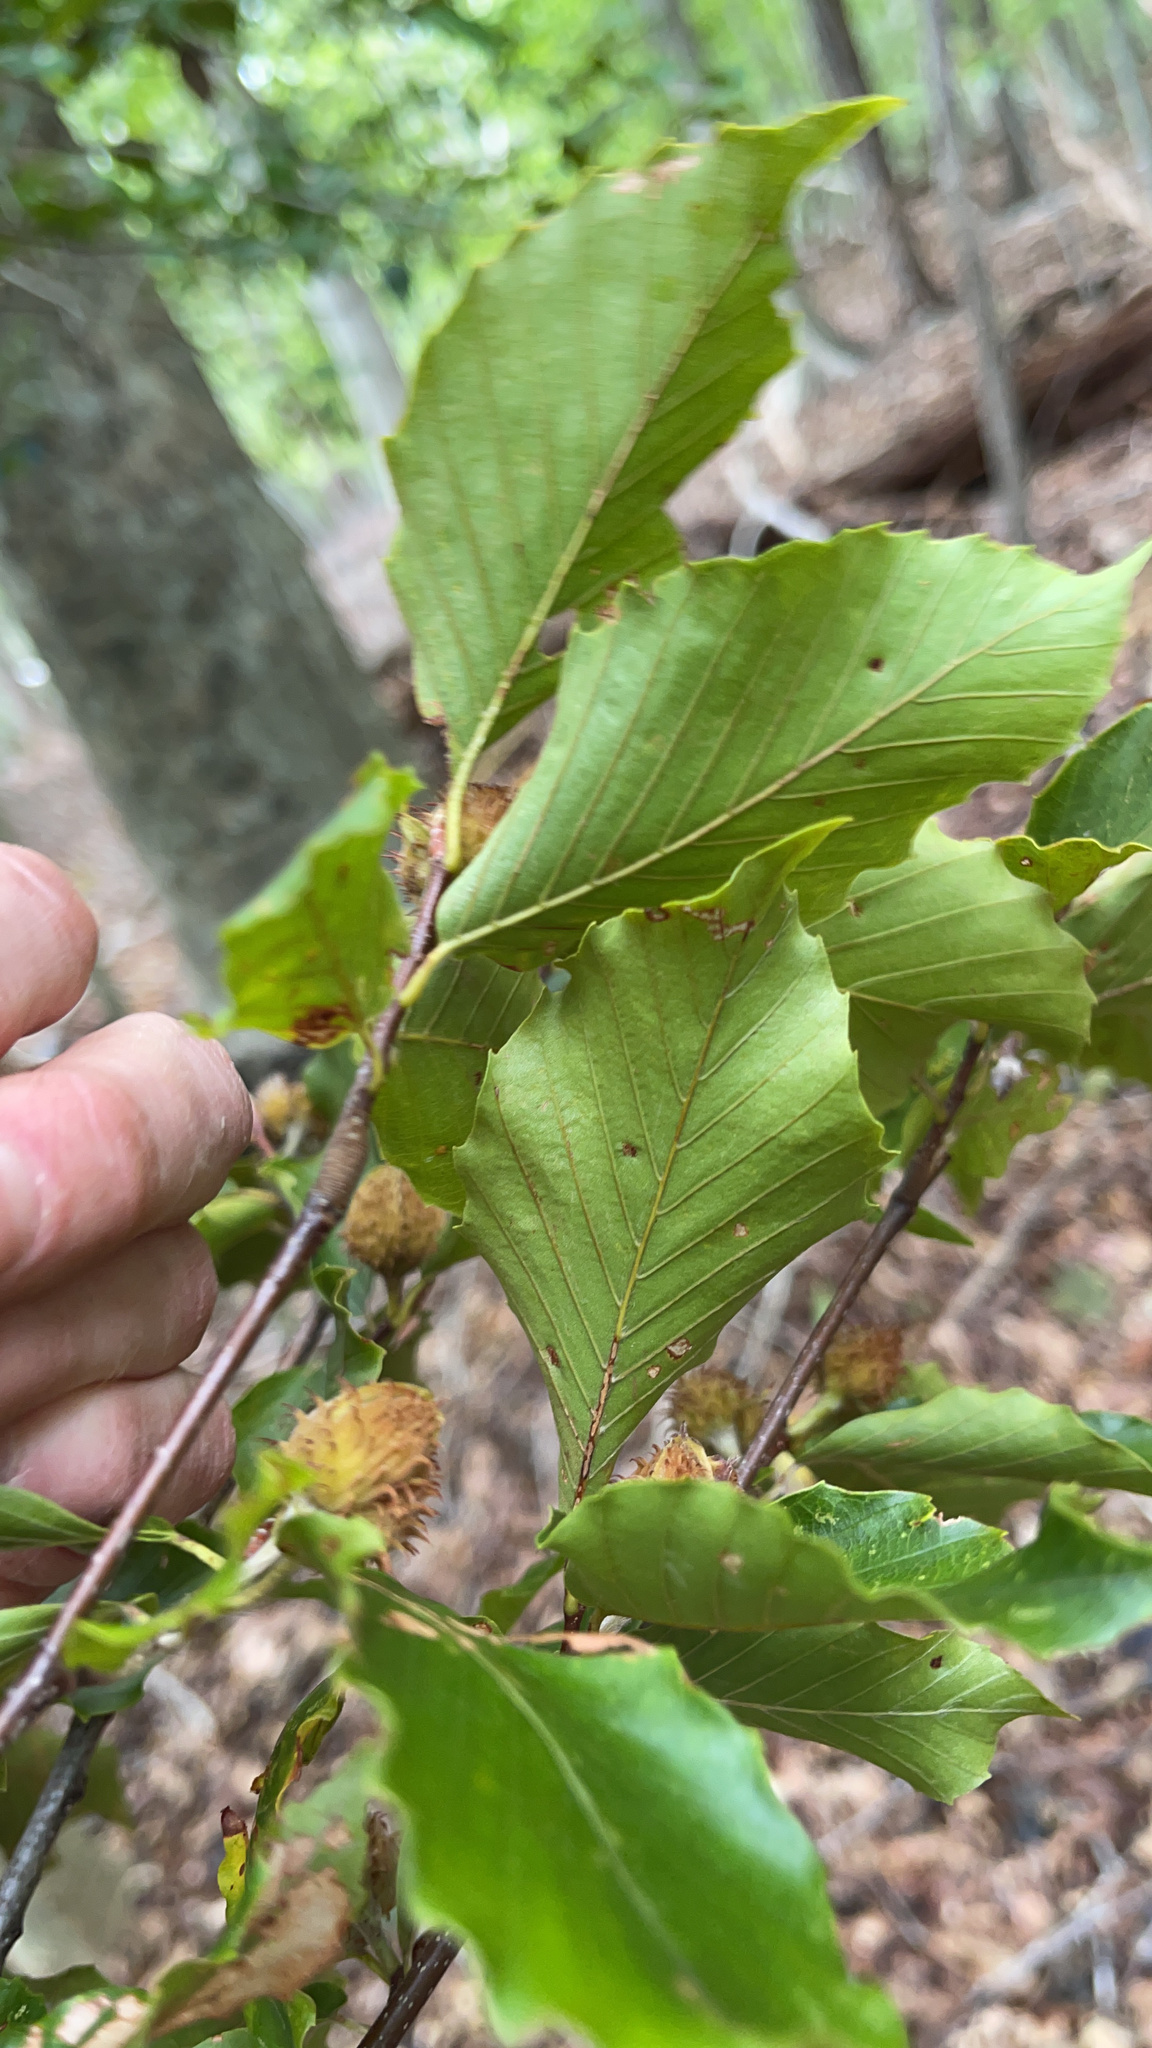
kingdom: Plantae
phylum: Tracheophyta
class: Magnoliopsida
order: Fagales
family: Fagaceae
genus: Fagus
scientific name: Fagus sylvatica
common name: Beech
